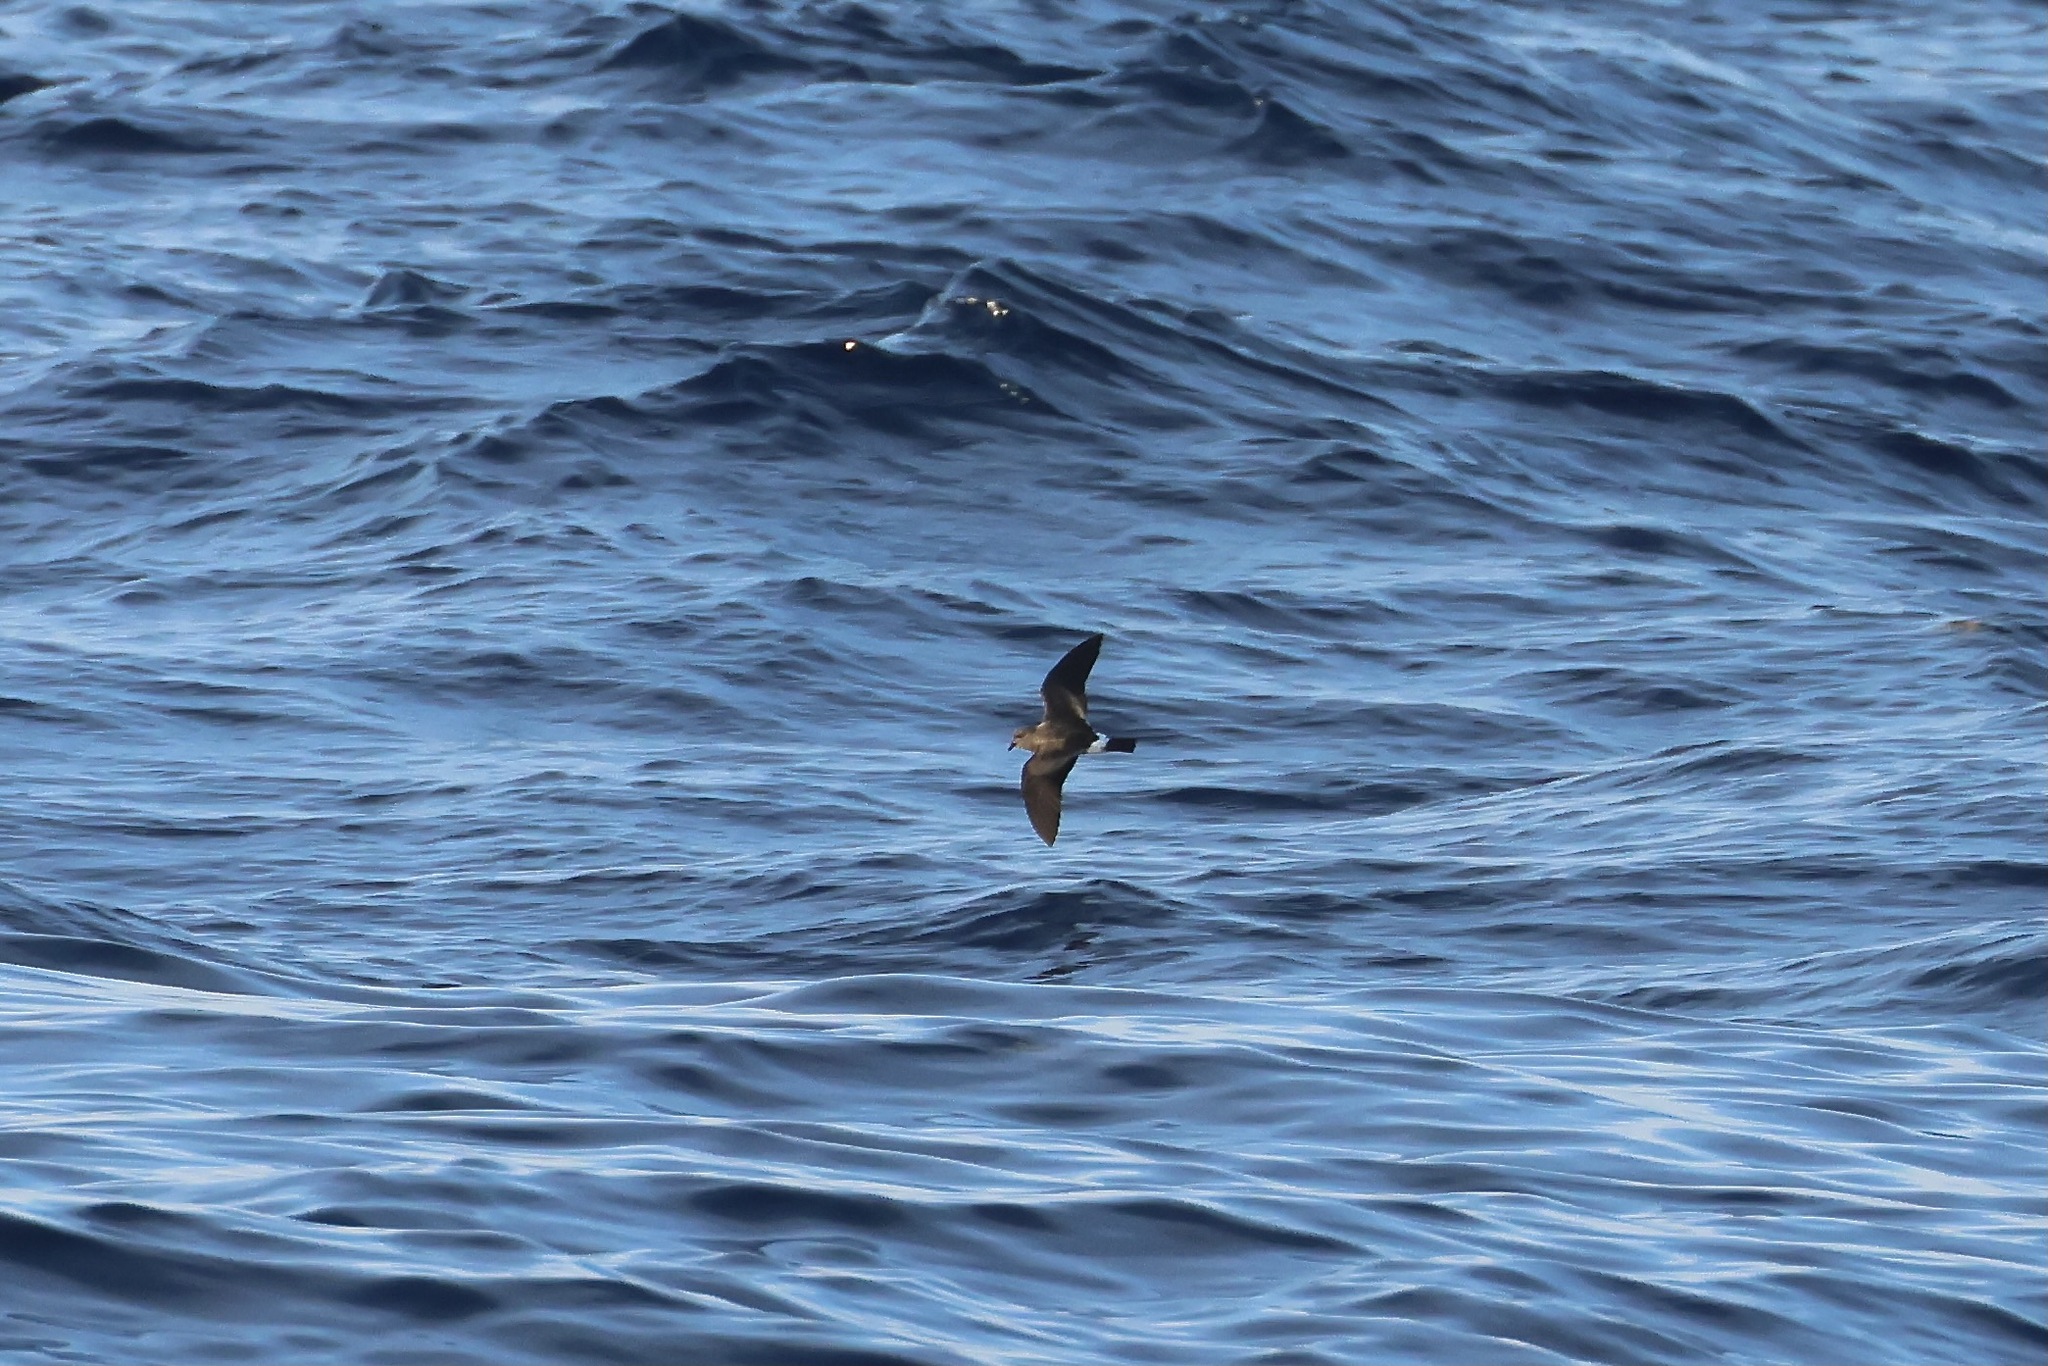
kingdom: Animalia
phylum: Chordata
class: Aves
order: Procellariiformes
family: Hydrobatidae
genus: Oceanodroma
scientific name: Oceanodroma castro
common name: Band-rumped storm-petrel
